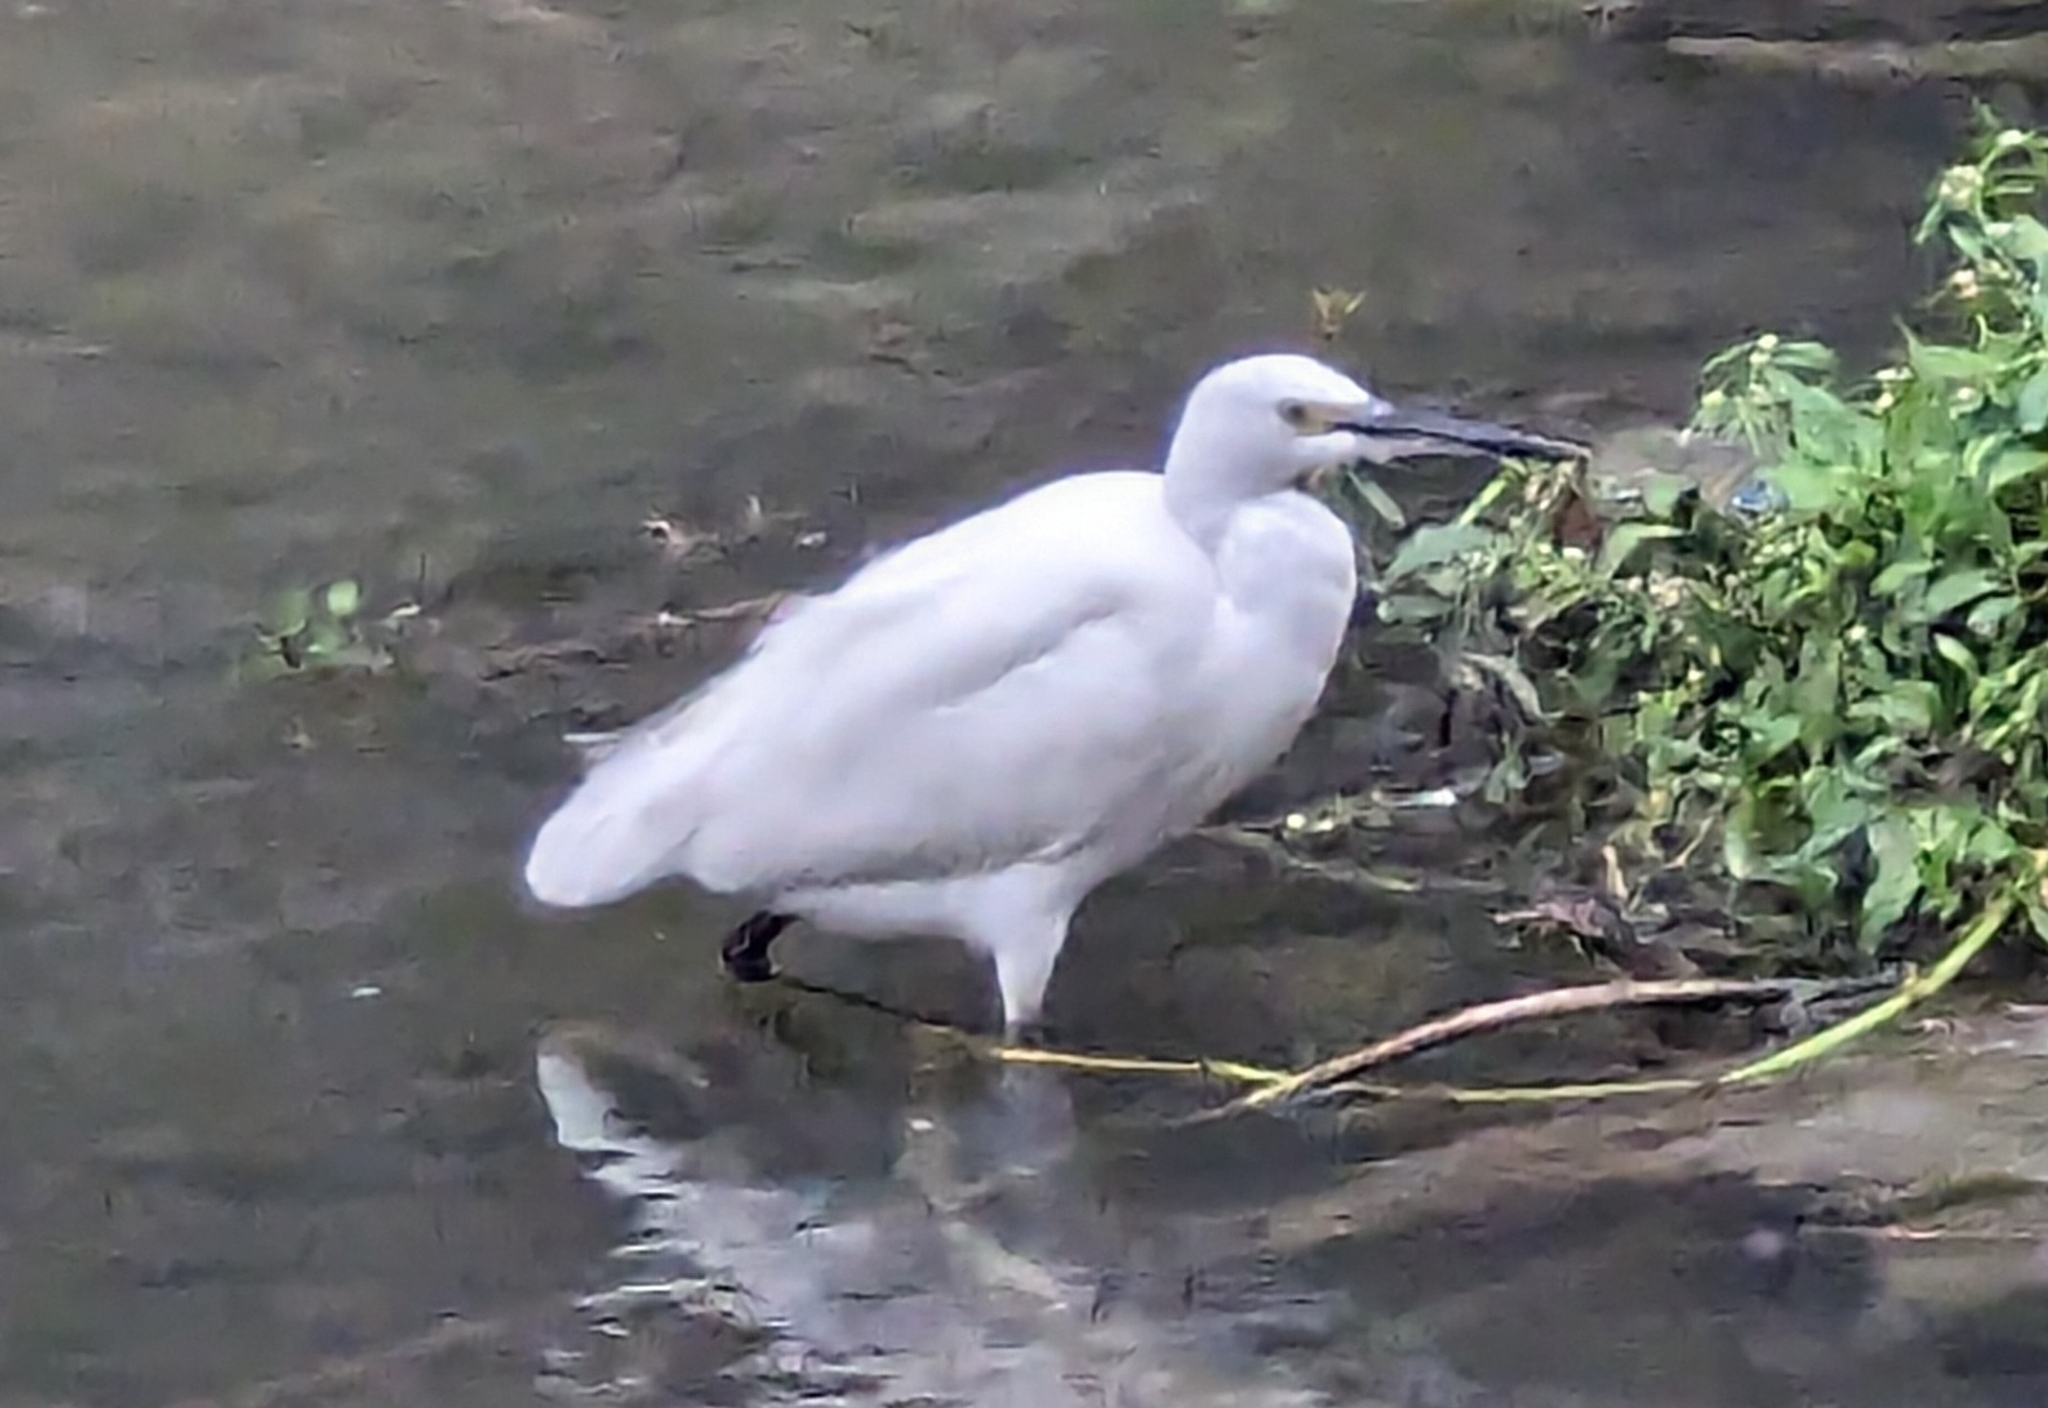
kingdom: Animalia
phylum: Chordata
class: Aves
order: Pelecaniformes
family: Ardeidae
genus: Egretta
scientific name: Egretta garzetta
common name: Little egret
